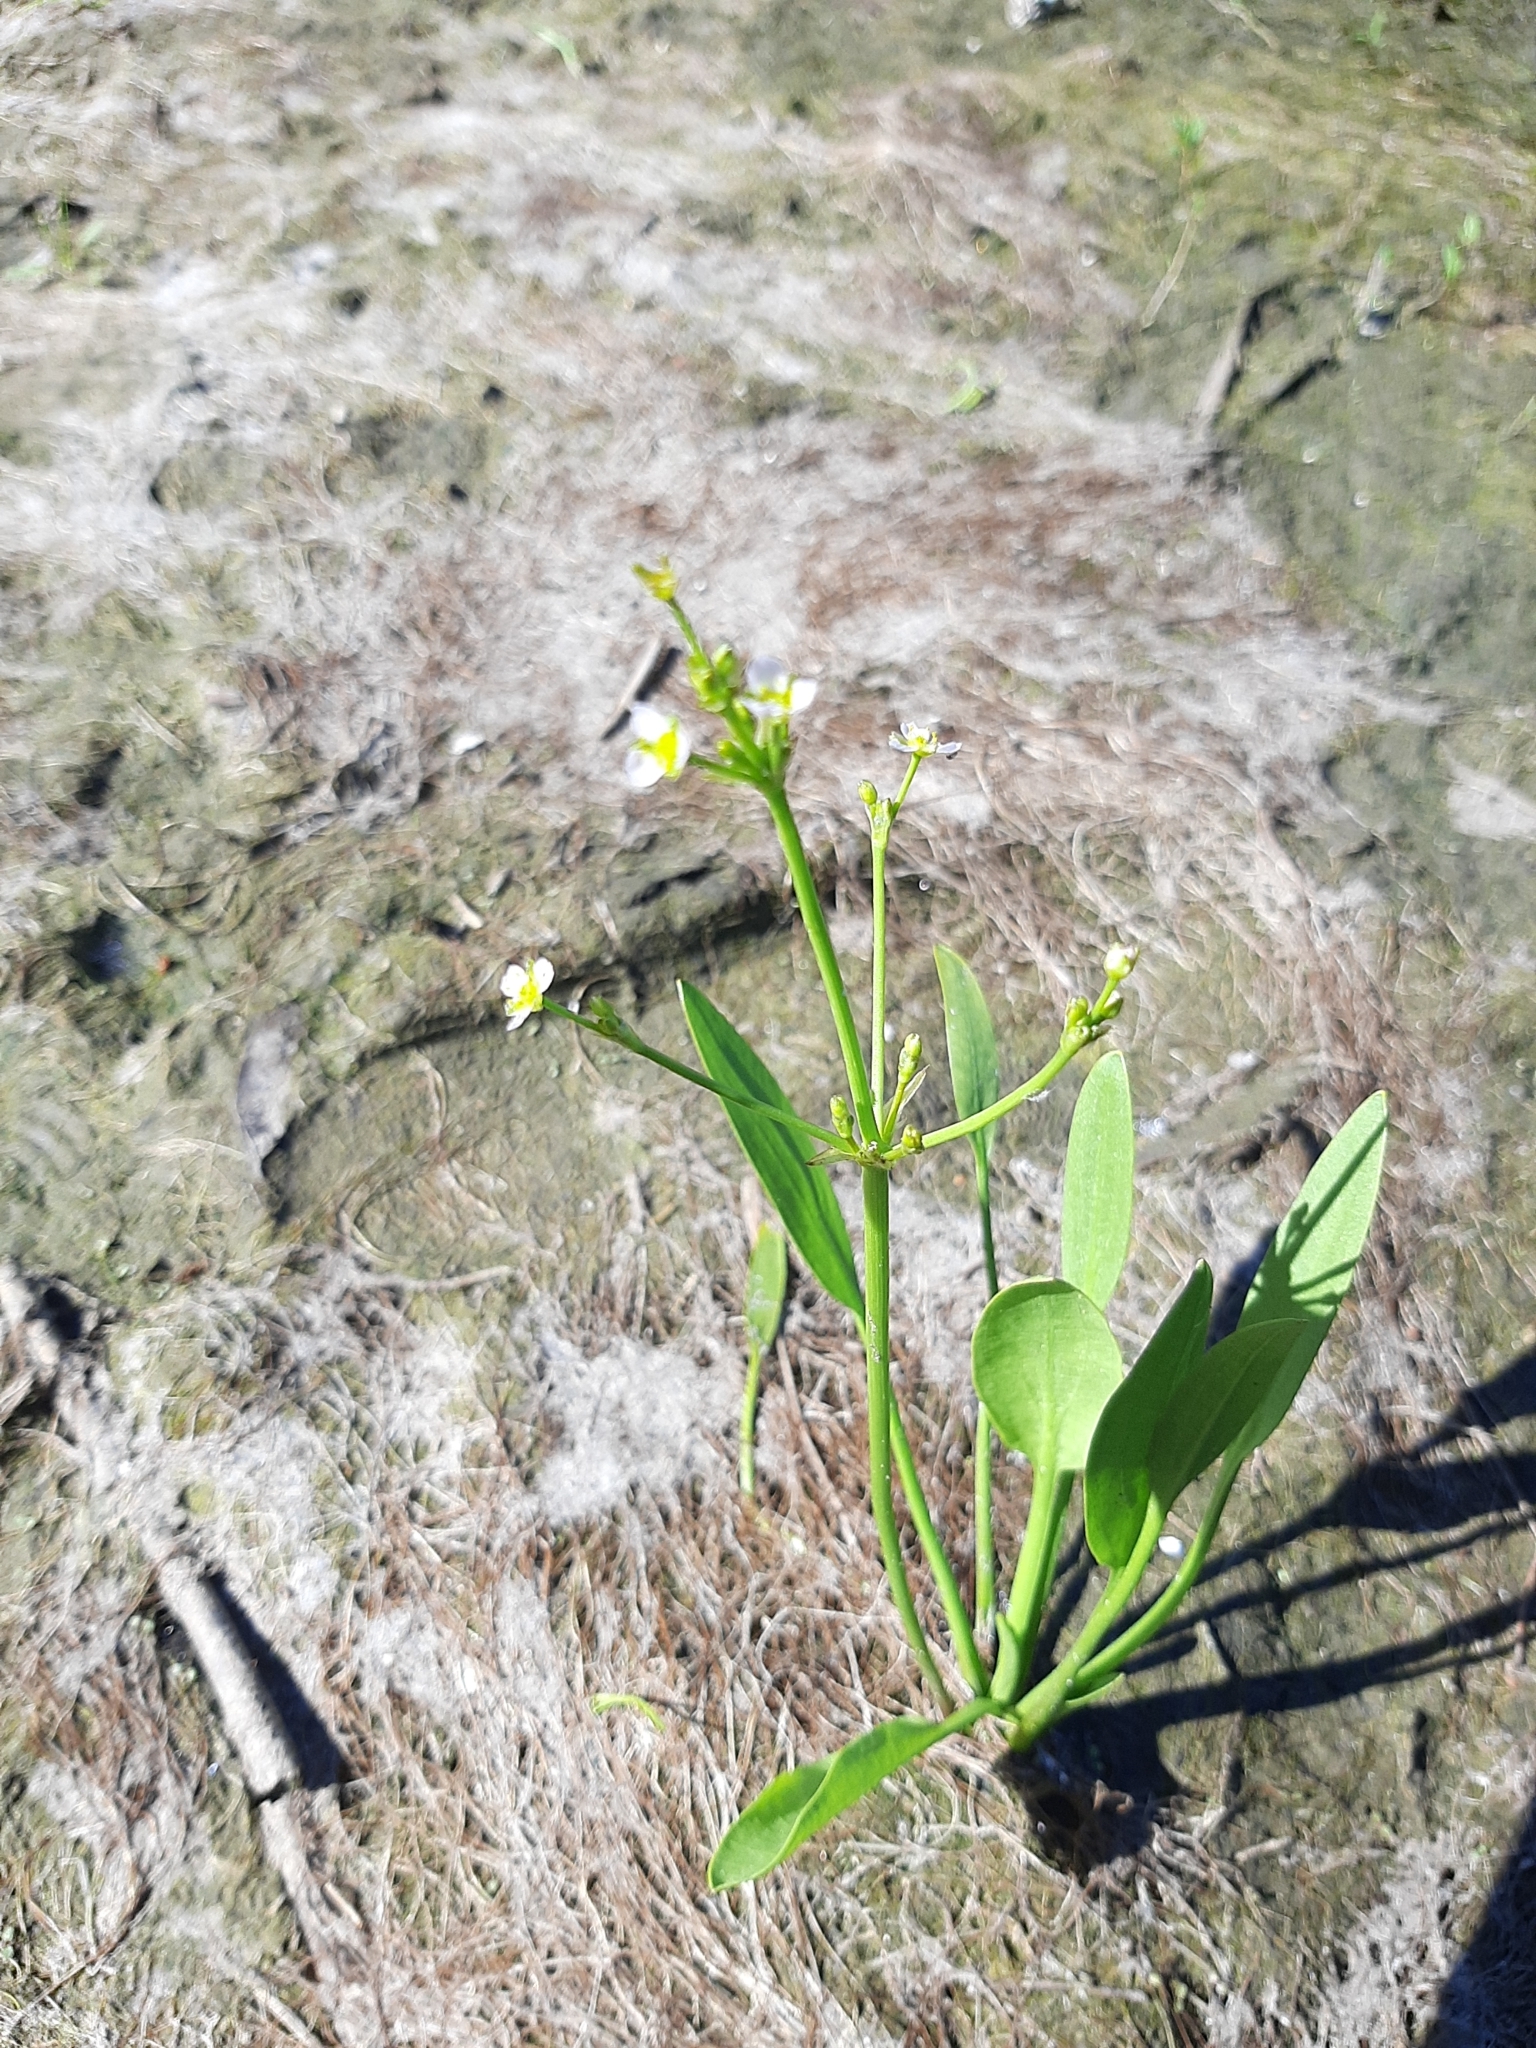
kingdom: Plantae
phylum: Tracheophyta
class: Liliopsida
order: Alismatales
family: Alismataceae
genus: Alisma
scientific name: Alisma plantago-aquatica
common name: Water-plantain
